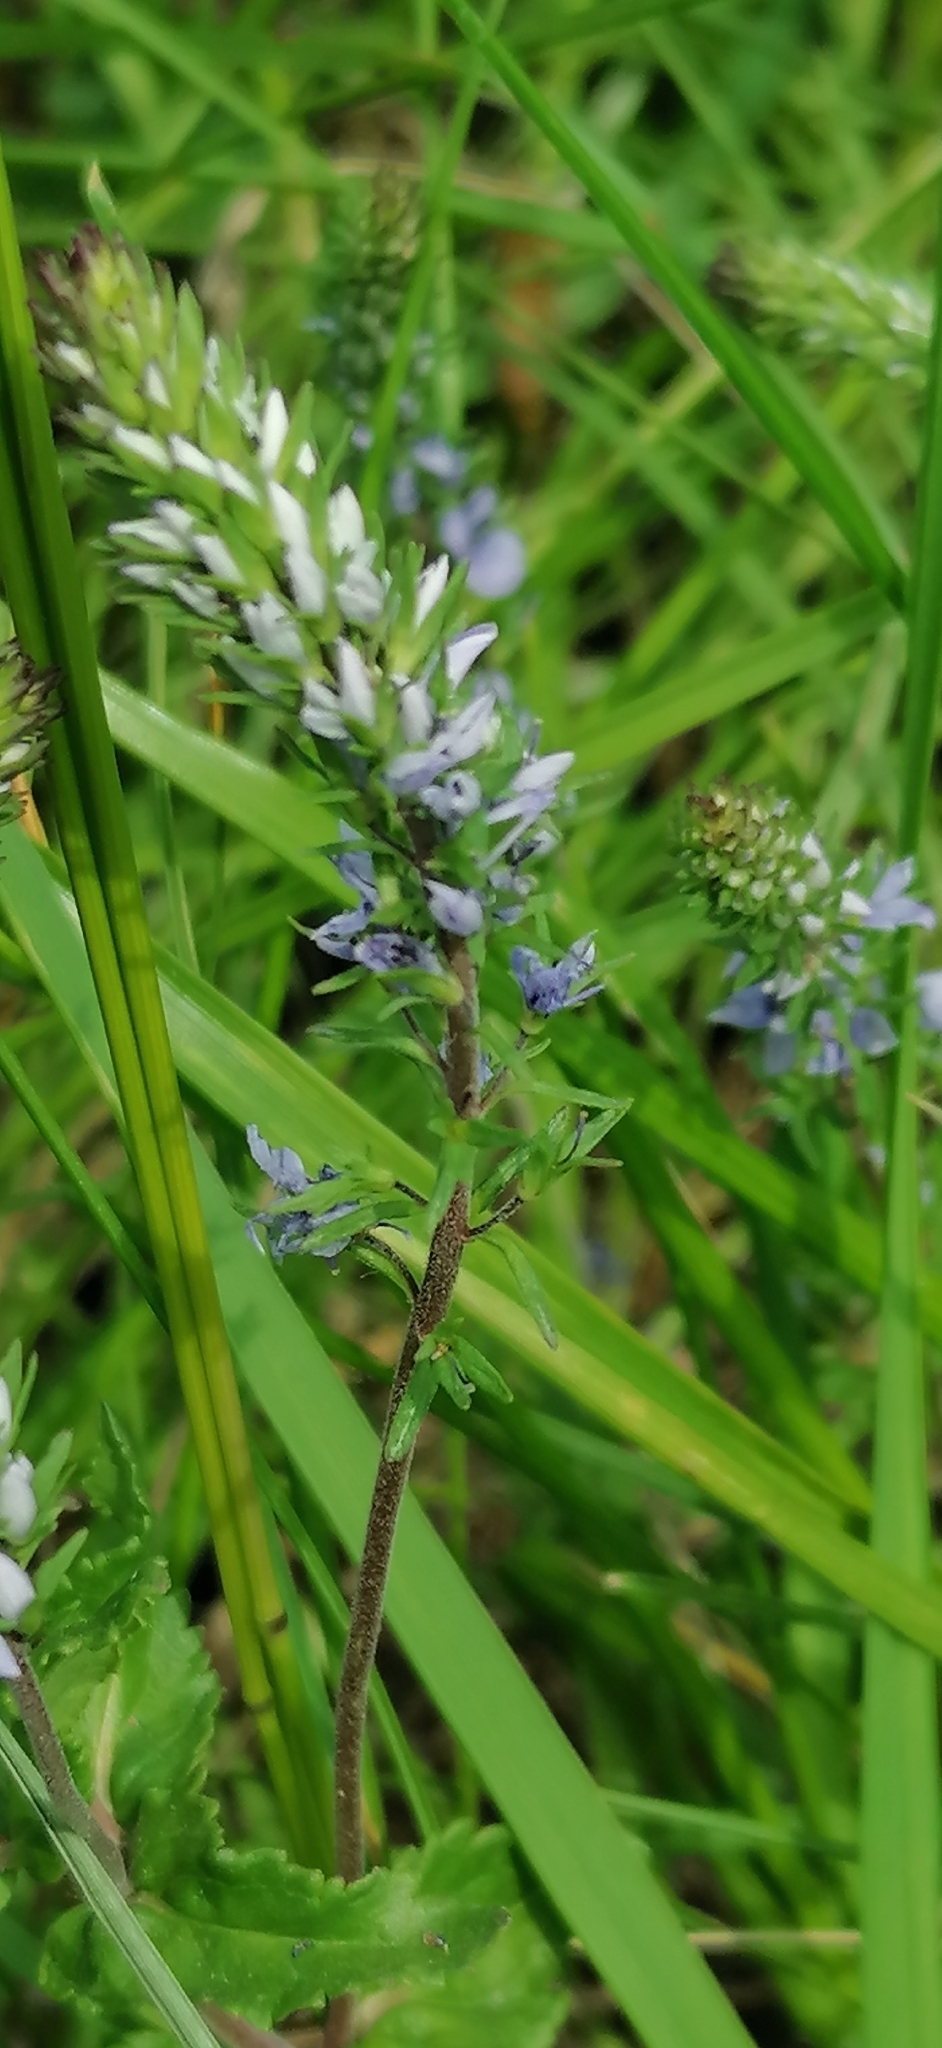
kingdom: Plantae
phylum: Tracheophyta
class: Magnoliopsida
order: Lamiales
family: Plantaginaceae
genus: Veronica
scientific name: Veronica teucrium
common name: Large speedwell
